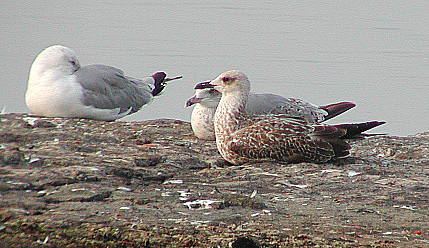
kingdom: Animalia
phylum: Chordata
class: Aves
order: Charadriiformes
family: Laridae
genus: Larus
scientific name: Larus fuscus
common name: Lesser black-backed gull
